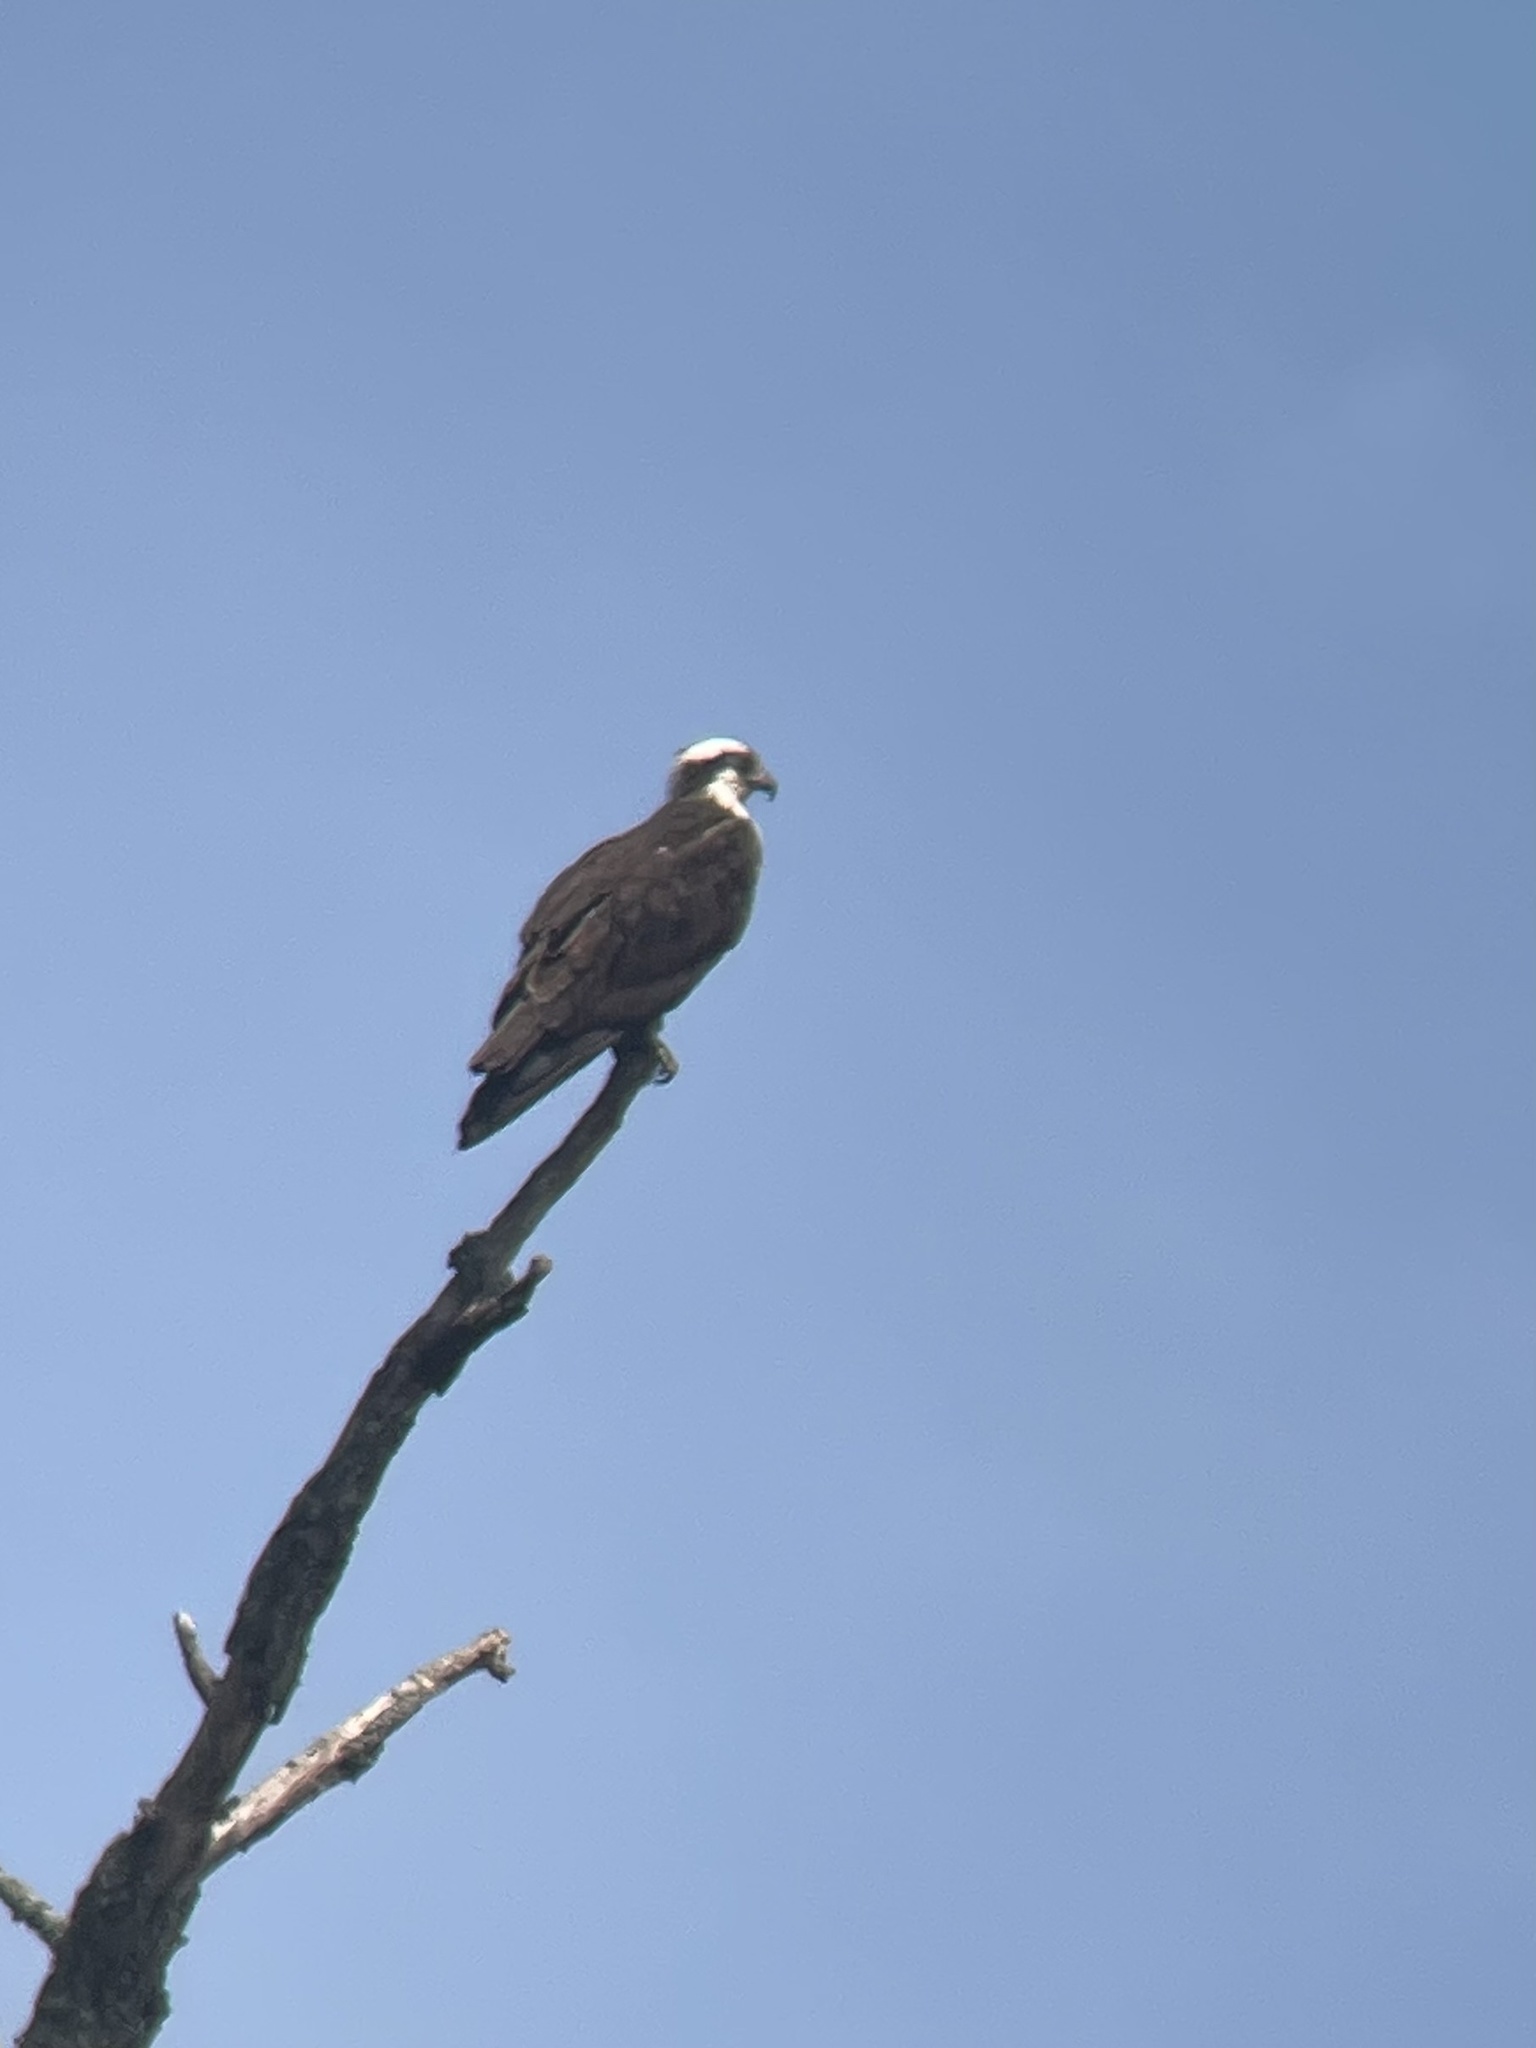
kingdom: Animalia
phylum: Chordata
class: Aves
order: Accipitriformes
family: Pandionidae
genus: Pandion
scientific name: Pandion haliaetus
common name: Osprey
